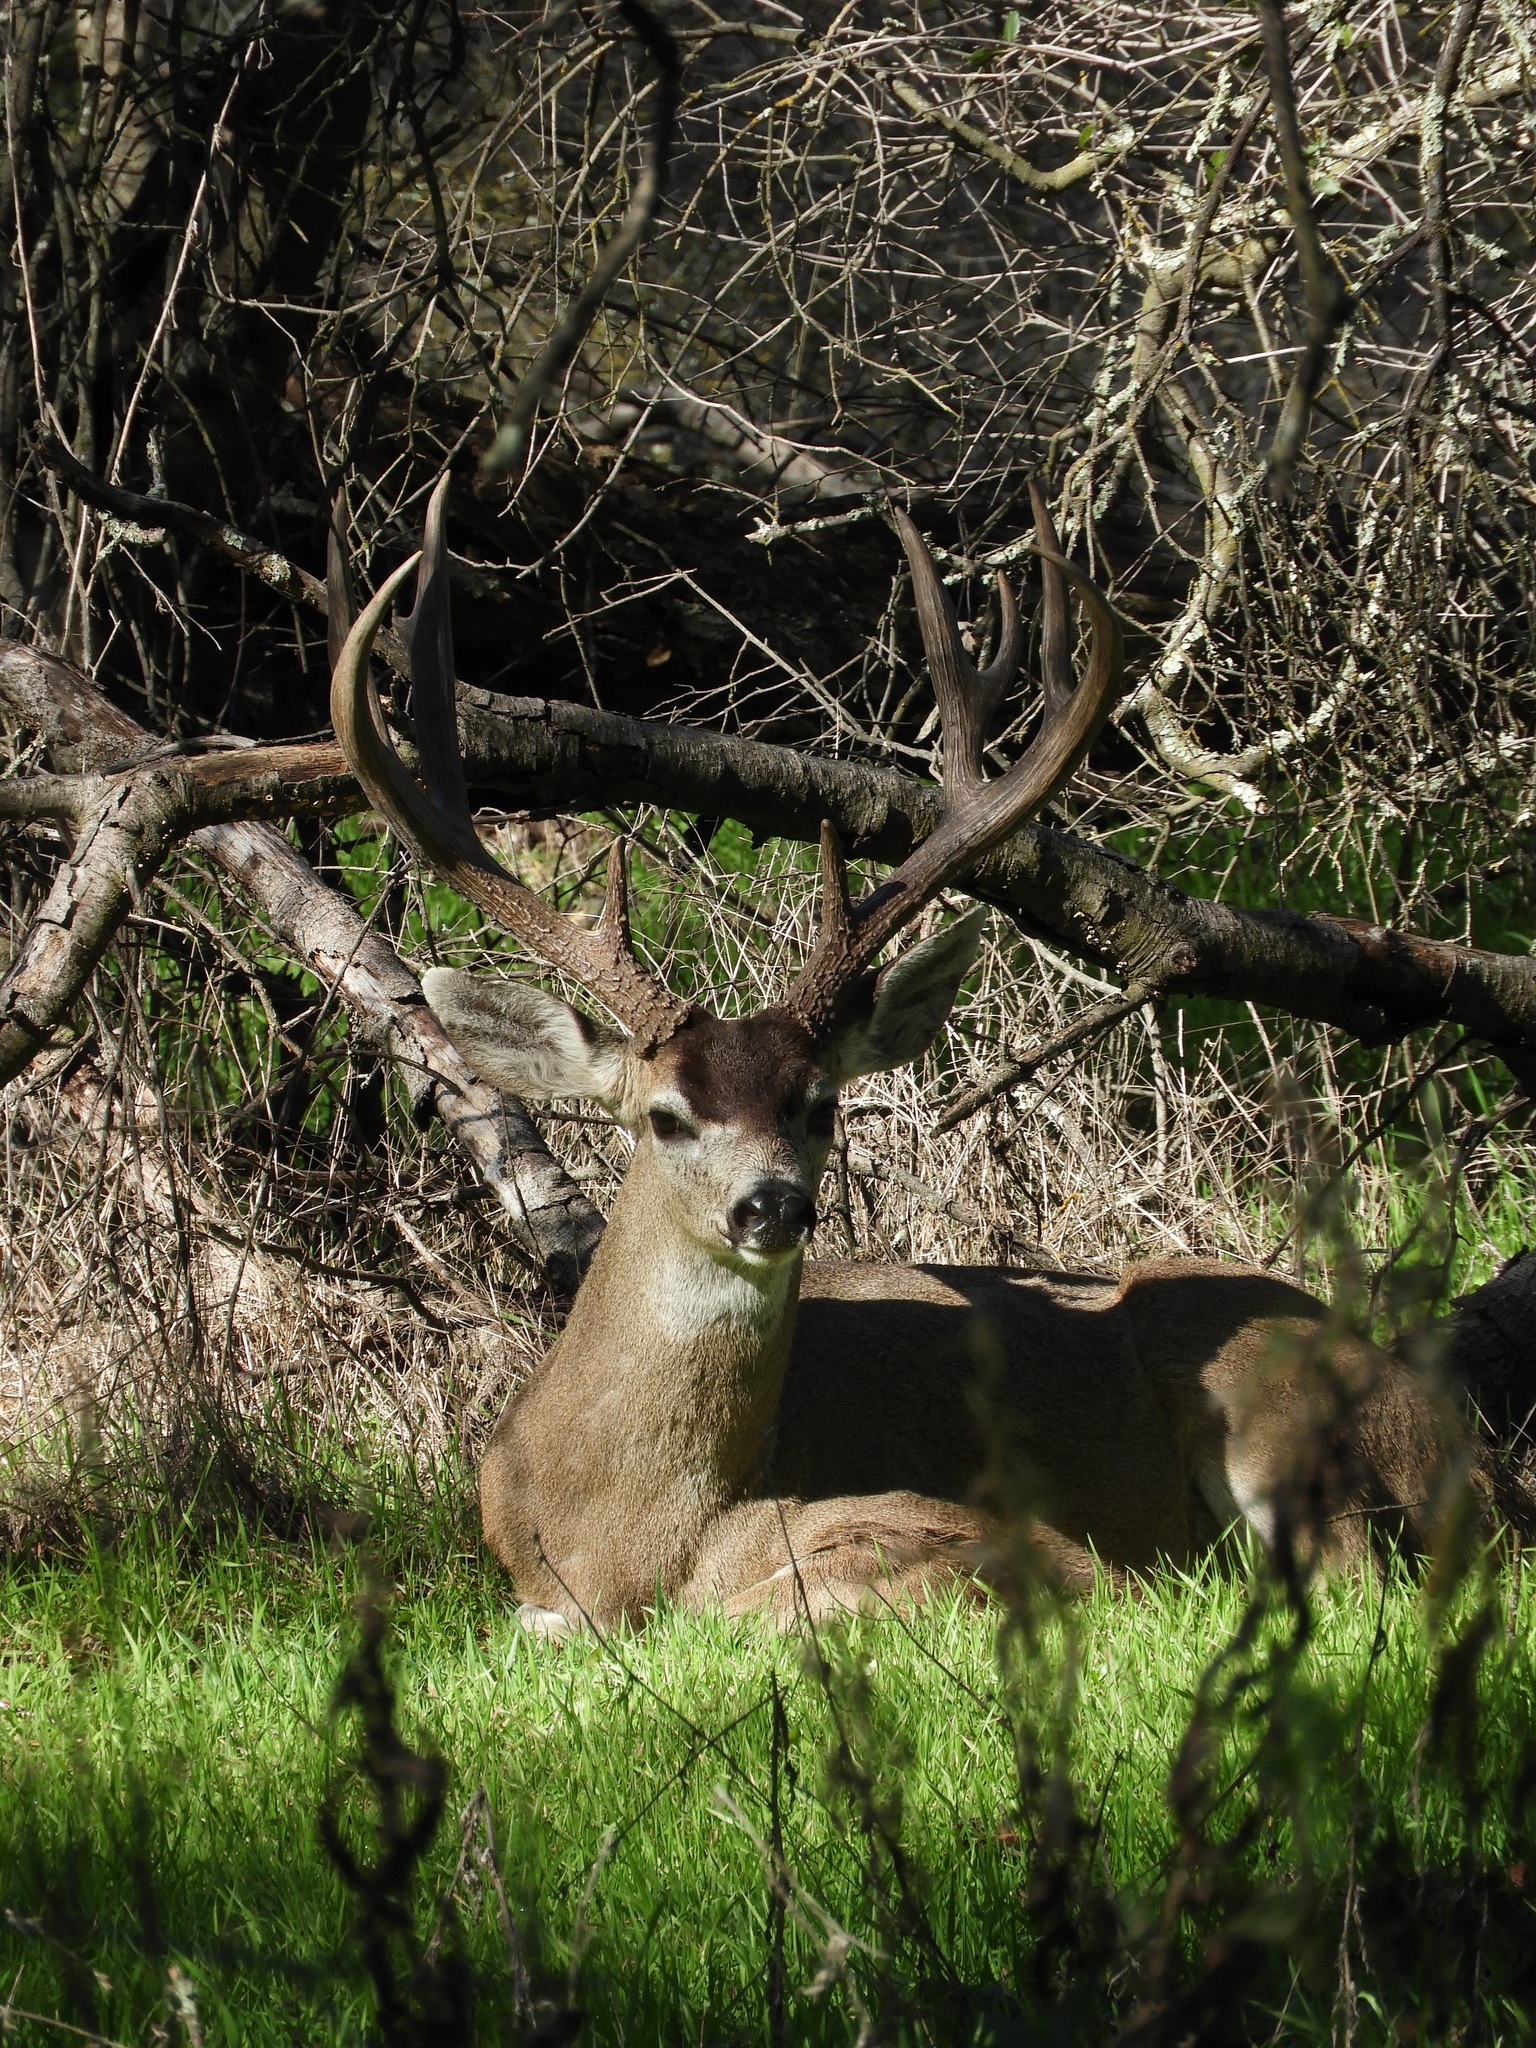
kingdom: Animalia
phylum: Chordata
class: Mammalia
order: Artiodactyla
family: Cervidae
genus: Odocoileus
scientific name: Odocoileus hemionus
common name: Mule deer
